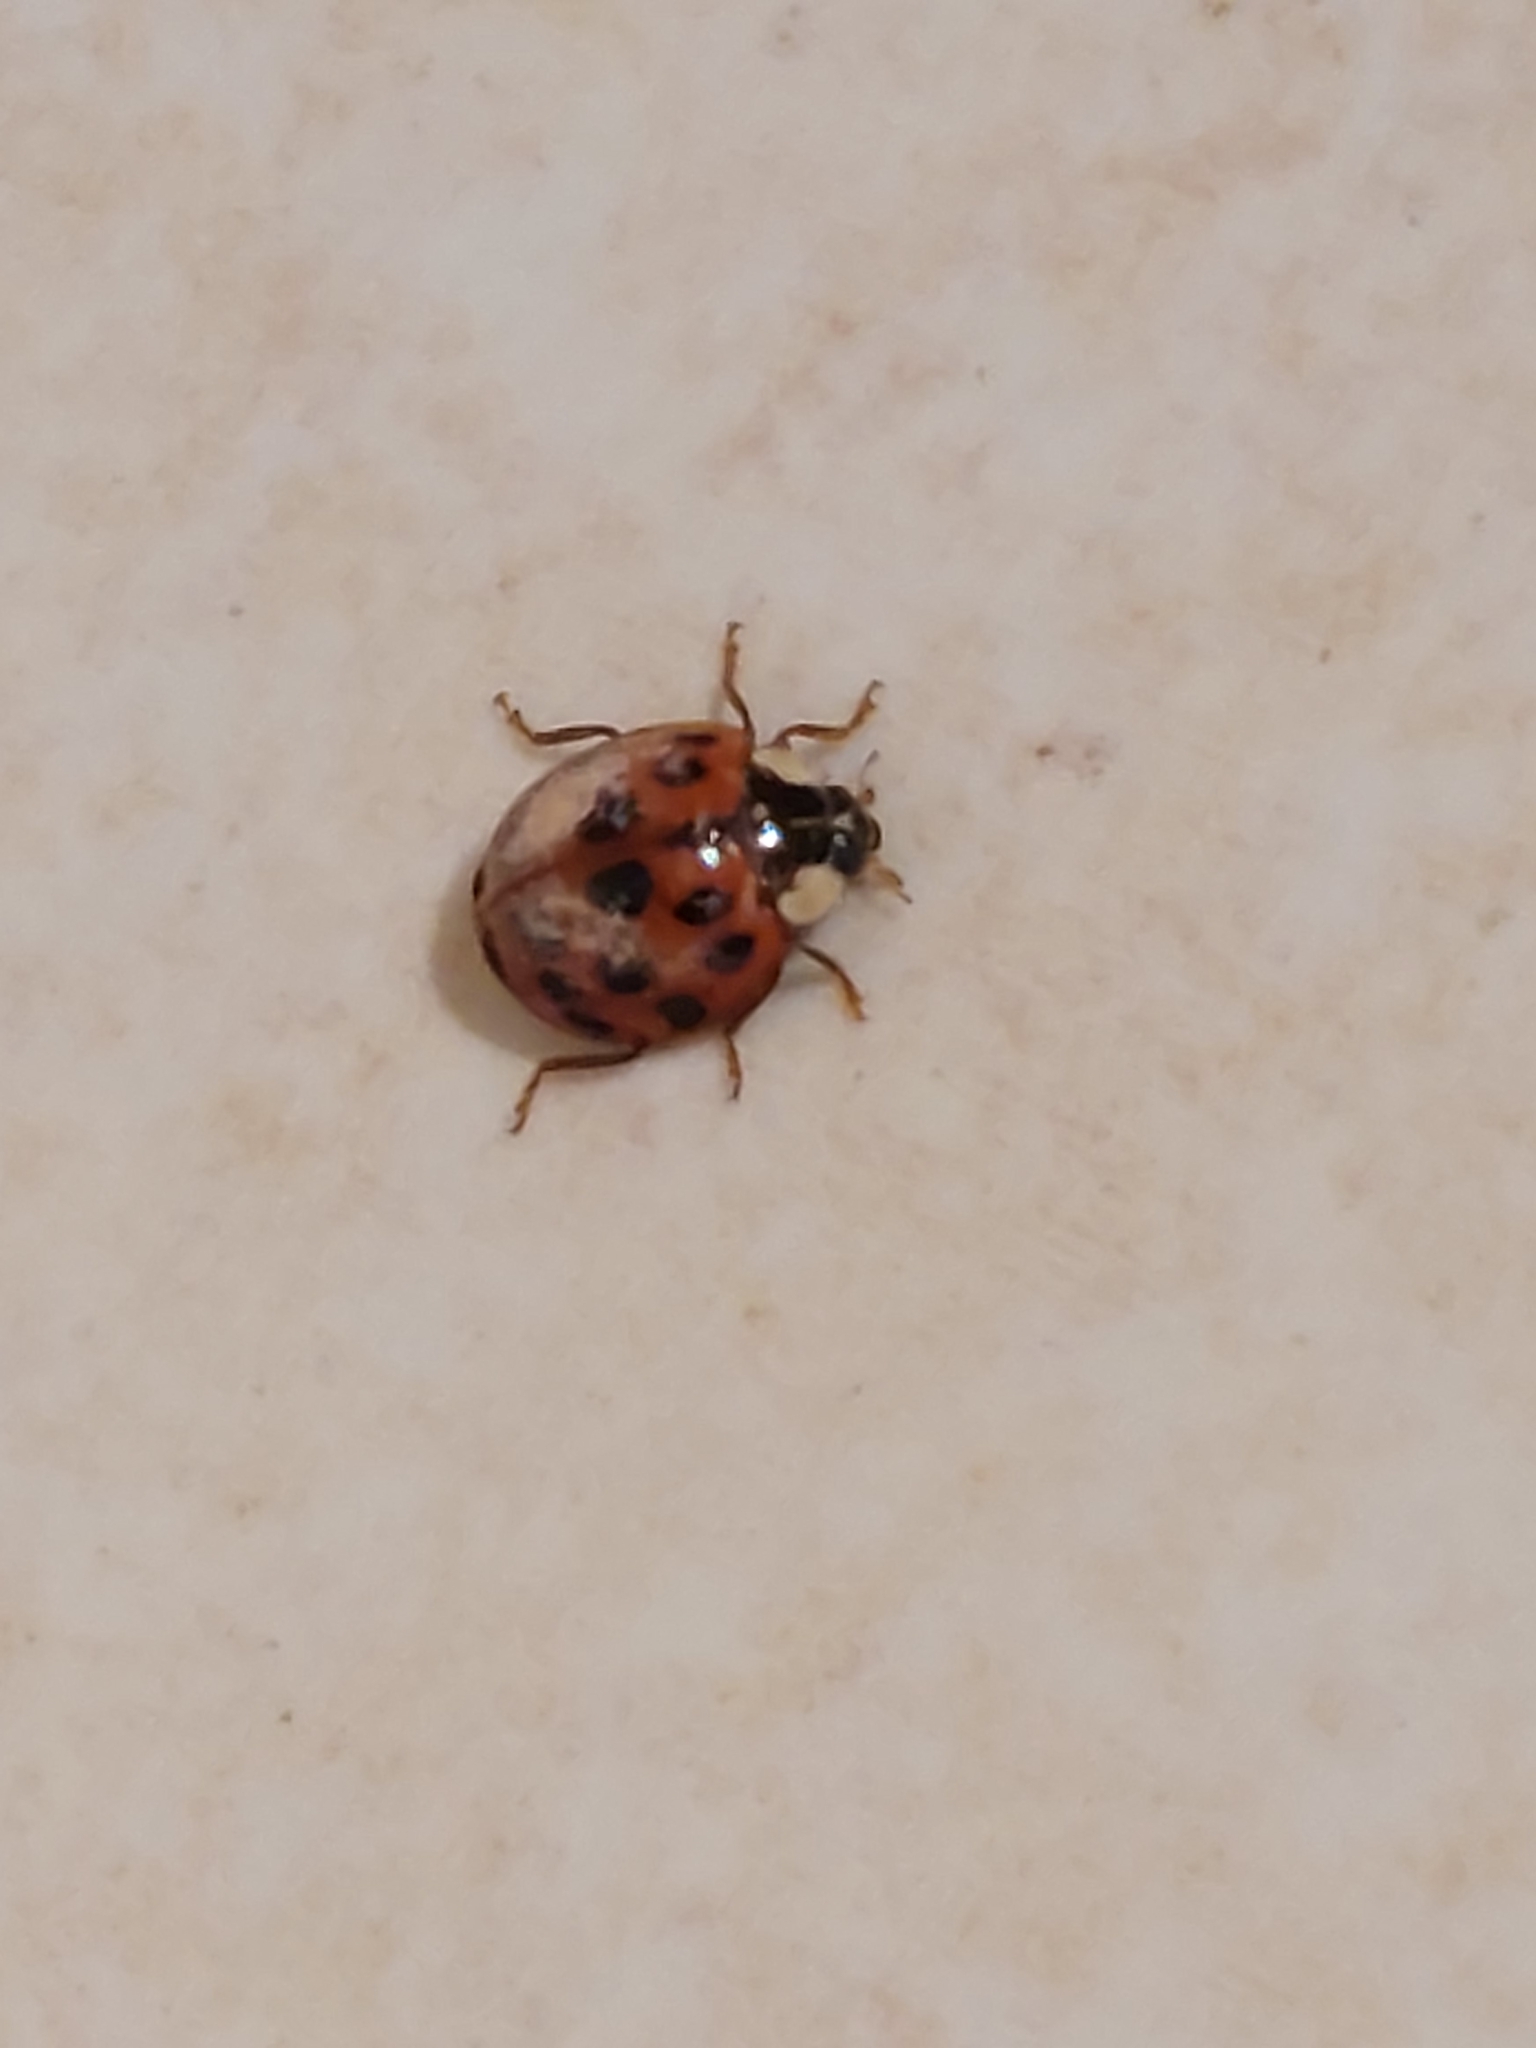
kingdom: Animalia
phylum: Arthropoda
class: Insecta
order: Coleoptera
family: Coccinellidae
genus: Harmonia
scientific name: Harmonia axyridis
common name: Harlequin ladybird
